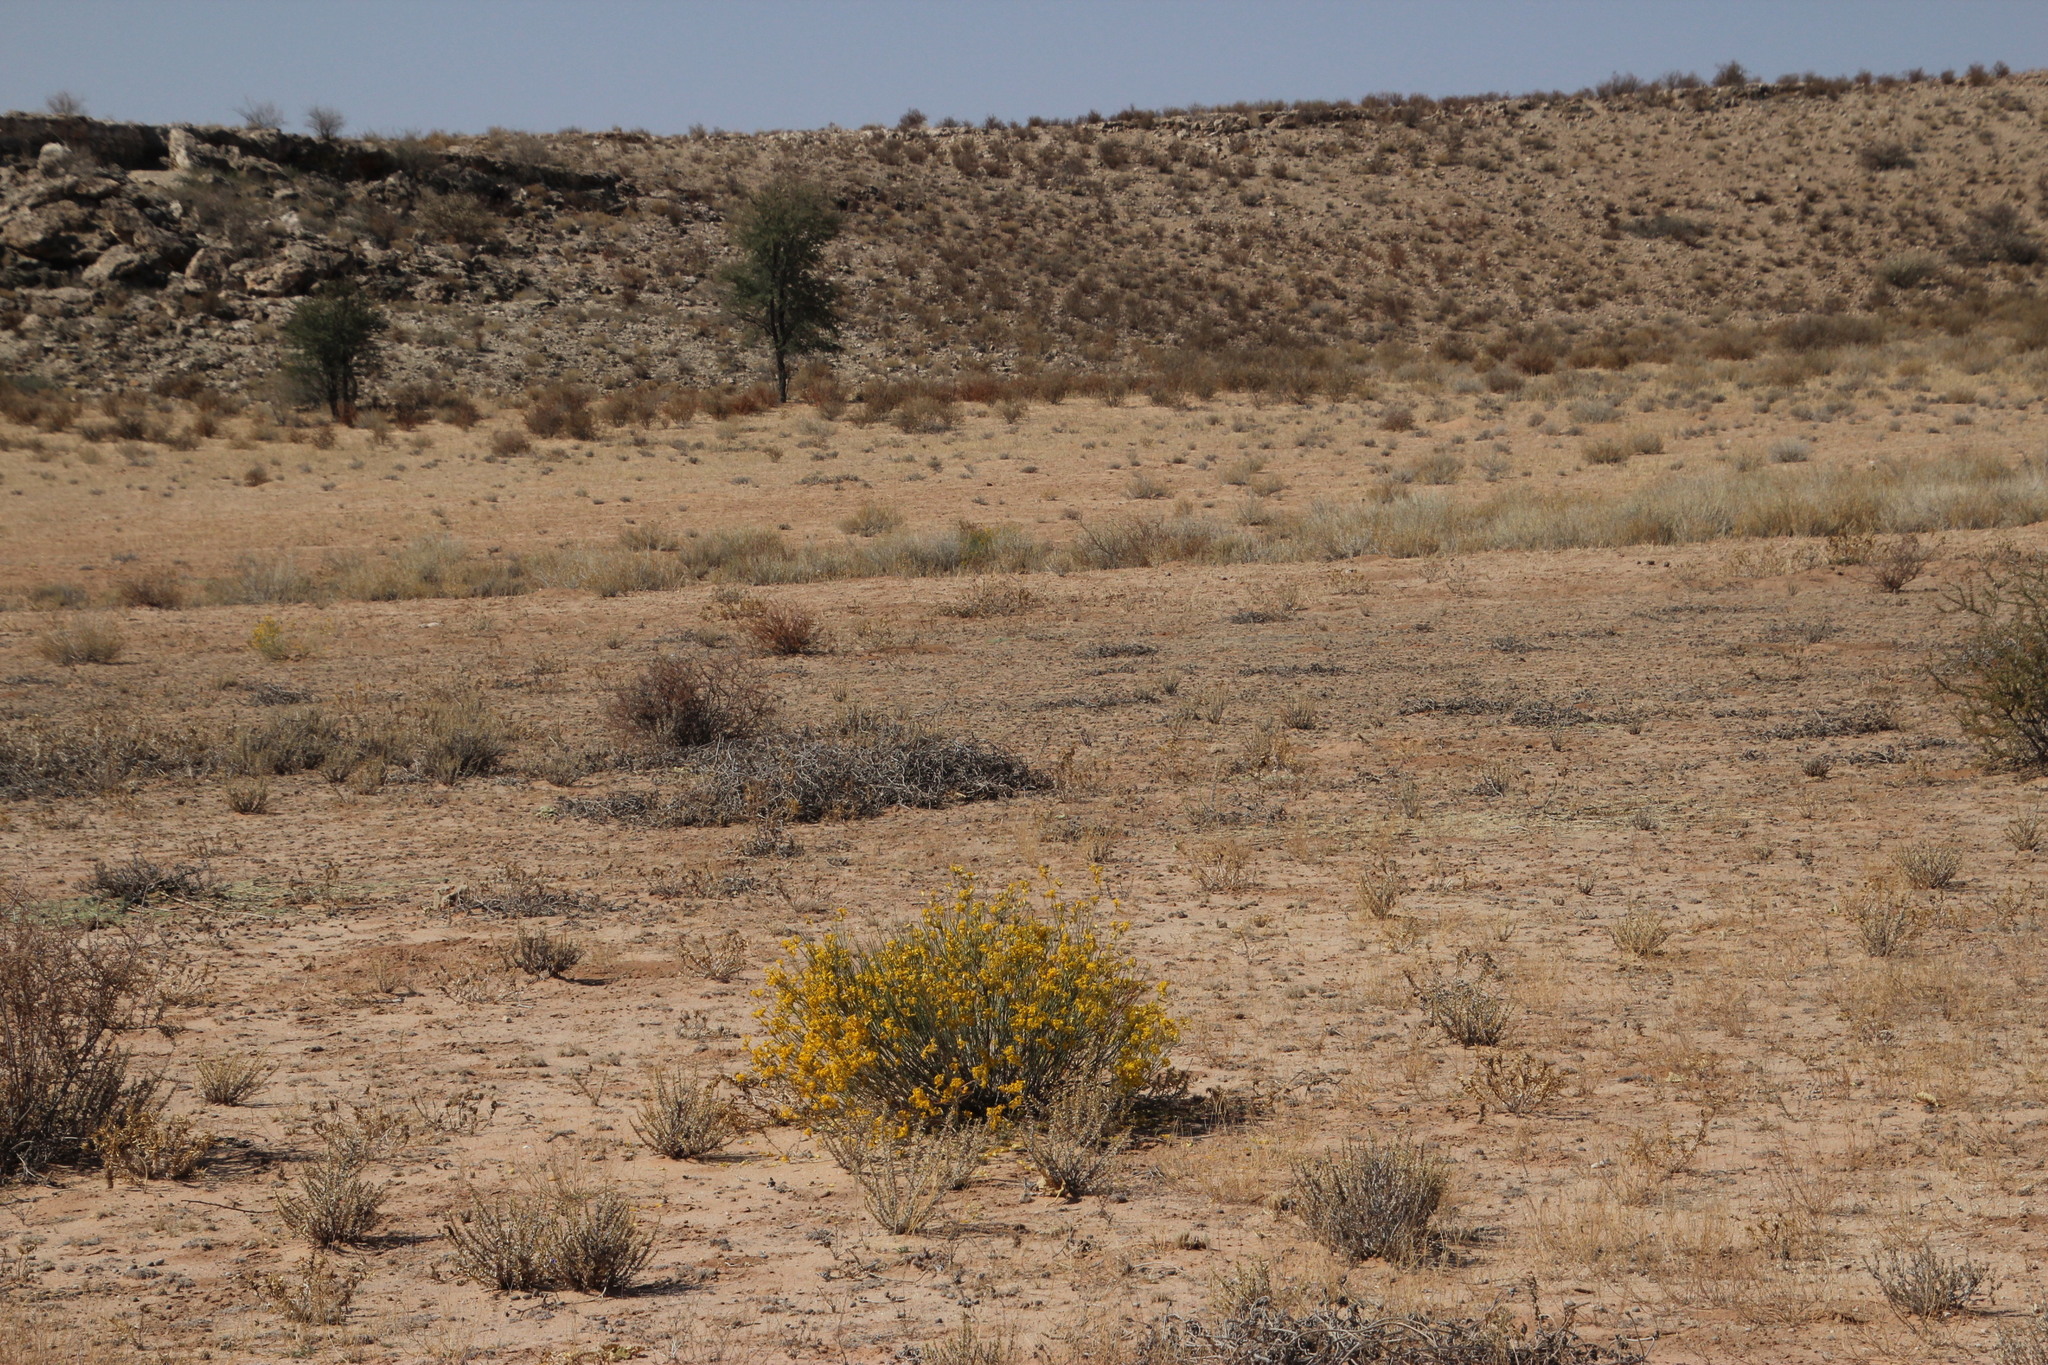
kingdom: Plantae
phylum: Tracheophyta
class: Magnoliopsida
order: Malvales
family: Thymelaeaceae
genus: Gnidia
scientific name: Gnidia polycephala
